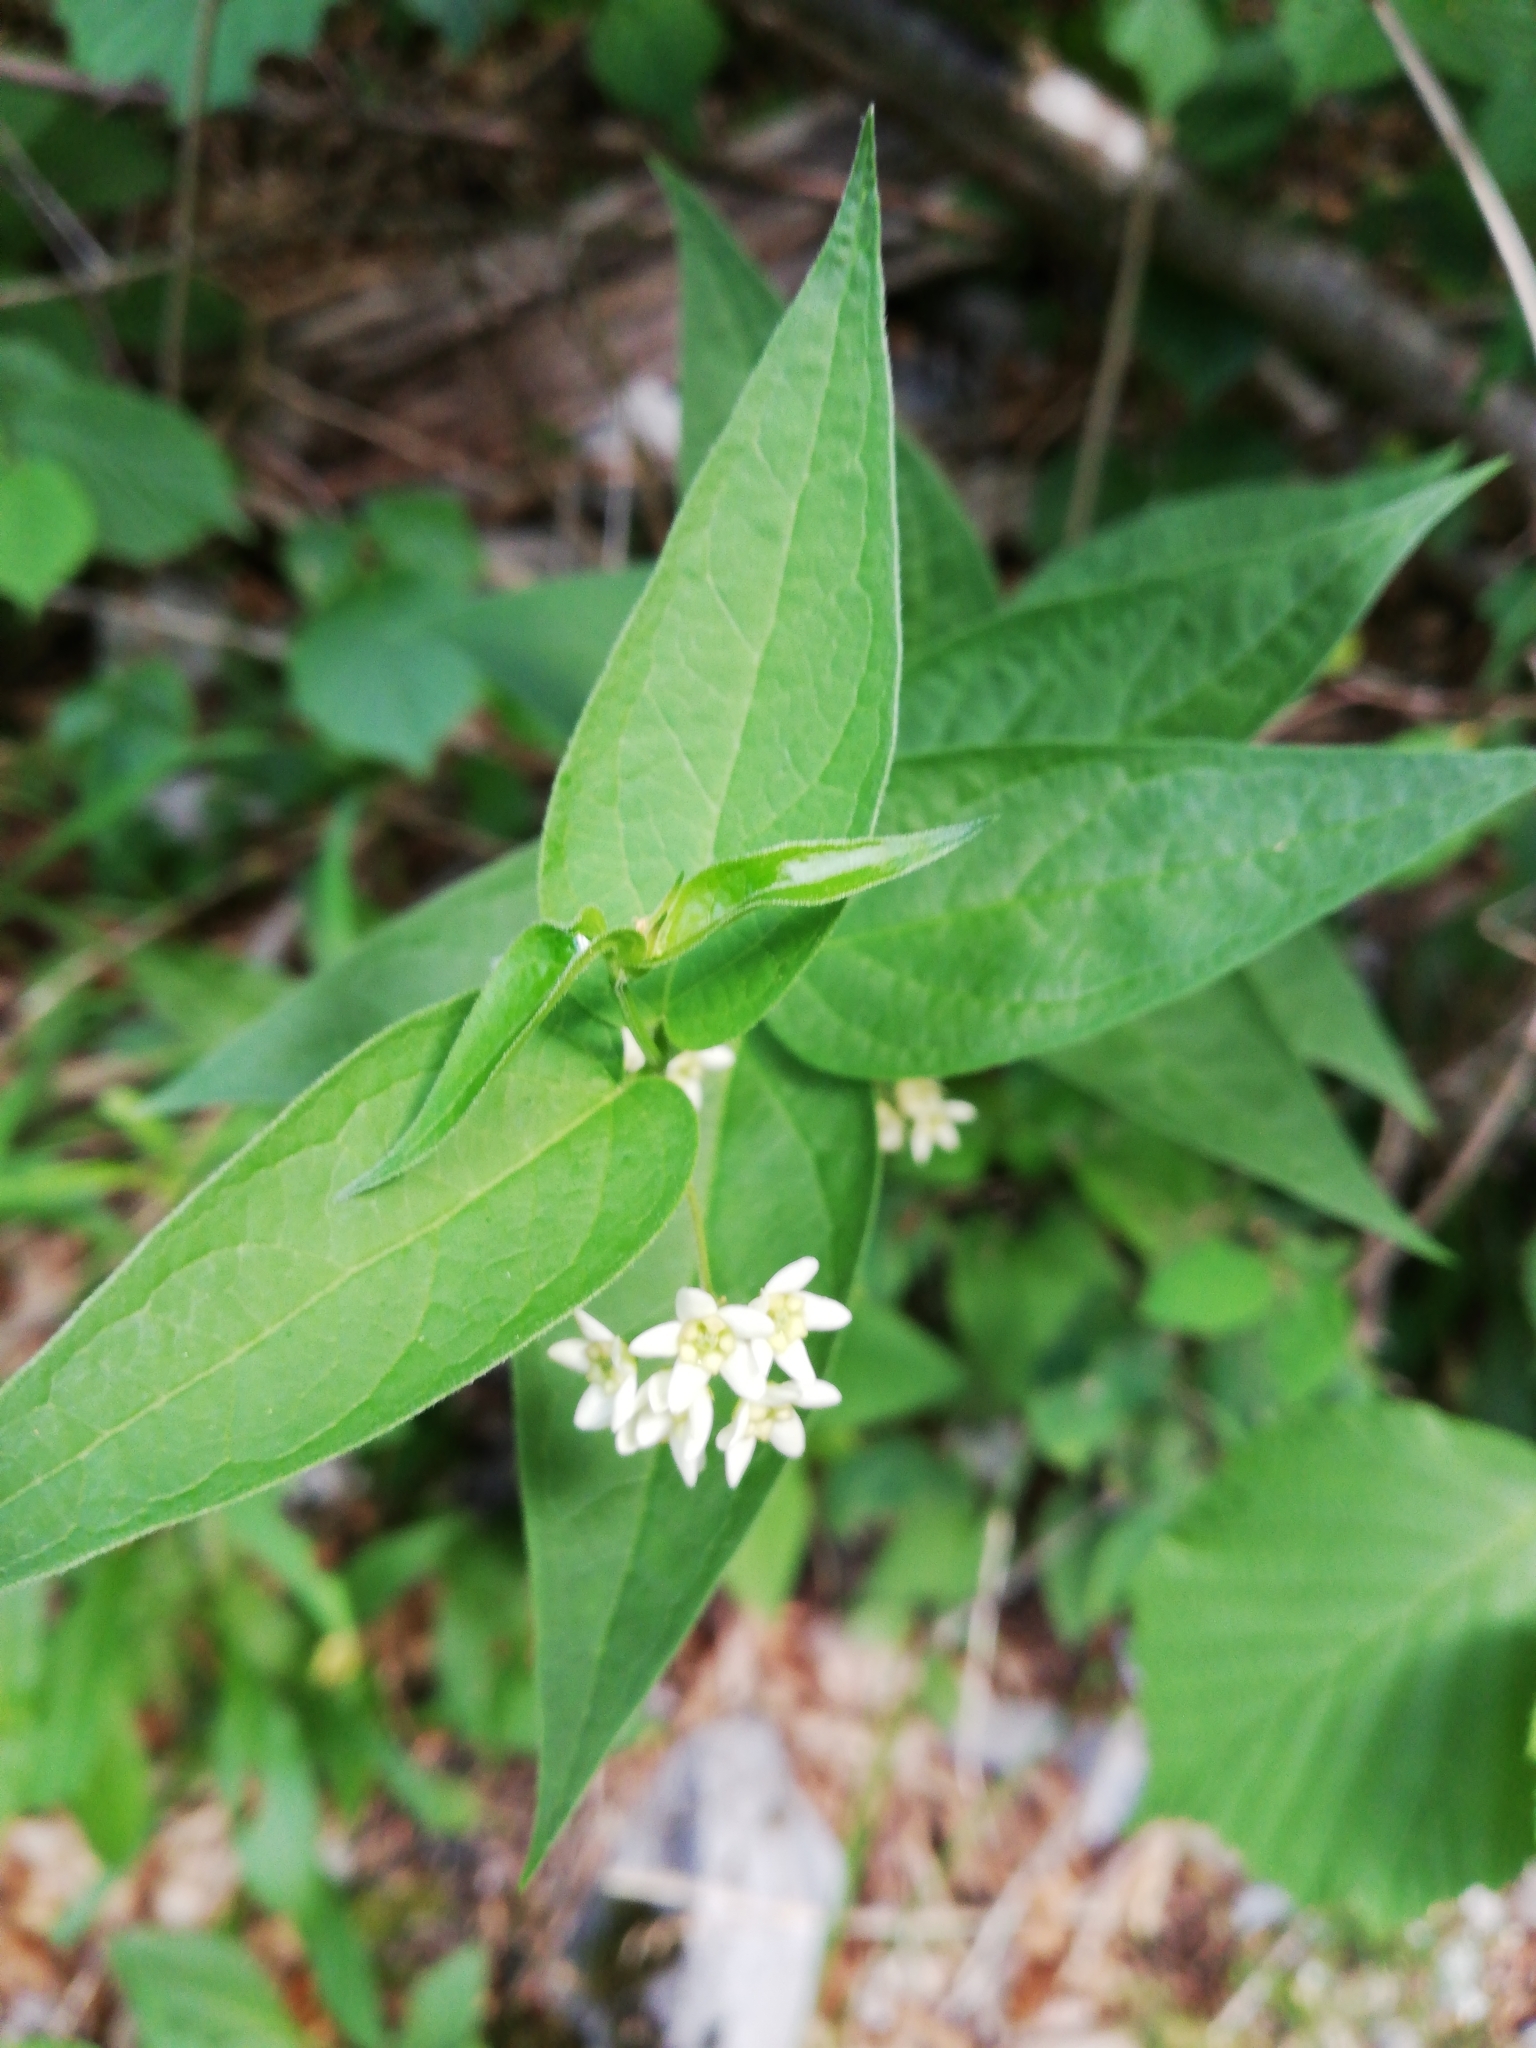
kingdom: Plantae
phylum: Tracheophyta
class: Magnoliopsida
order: Gentianales
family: Apocynaceae
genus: Vincetoxicum
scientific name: Vincetoxicum hirundinaria
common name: White swallowwort
